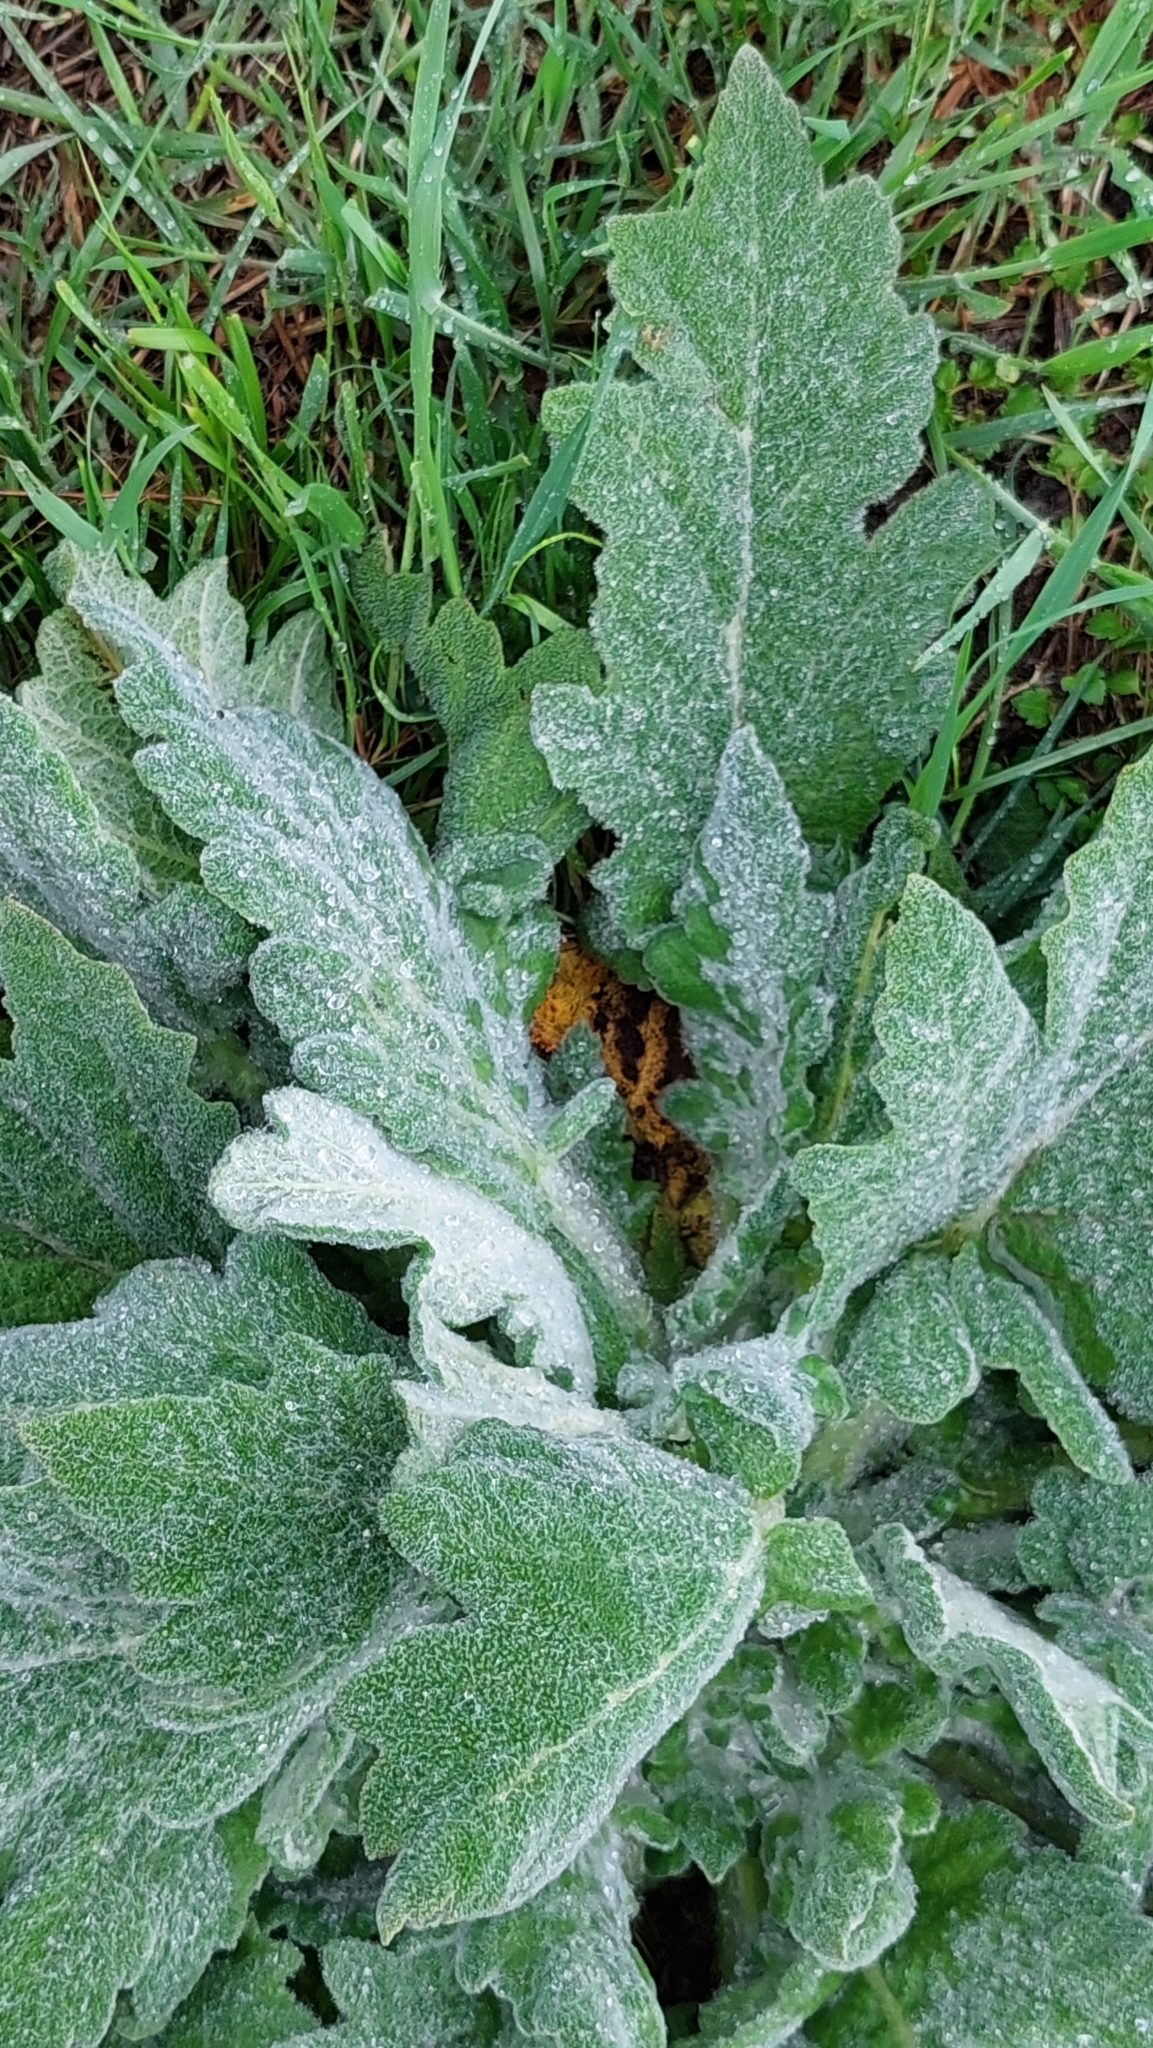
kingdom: Plantae
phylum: Tracheophyta
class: Magnoliopsida
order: Lamiales
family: Lamiaceae
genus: Salvia
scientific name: Salvia aethiopis
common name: Mediterranean sage
